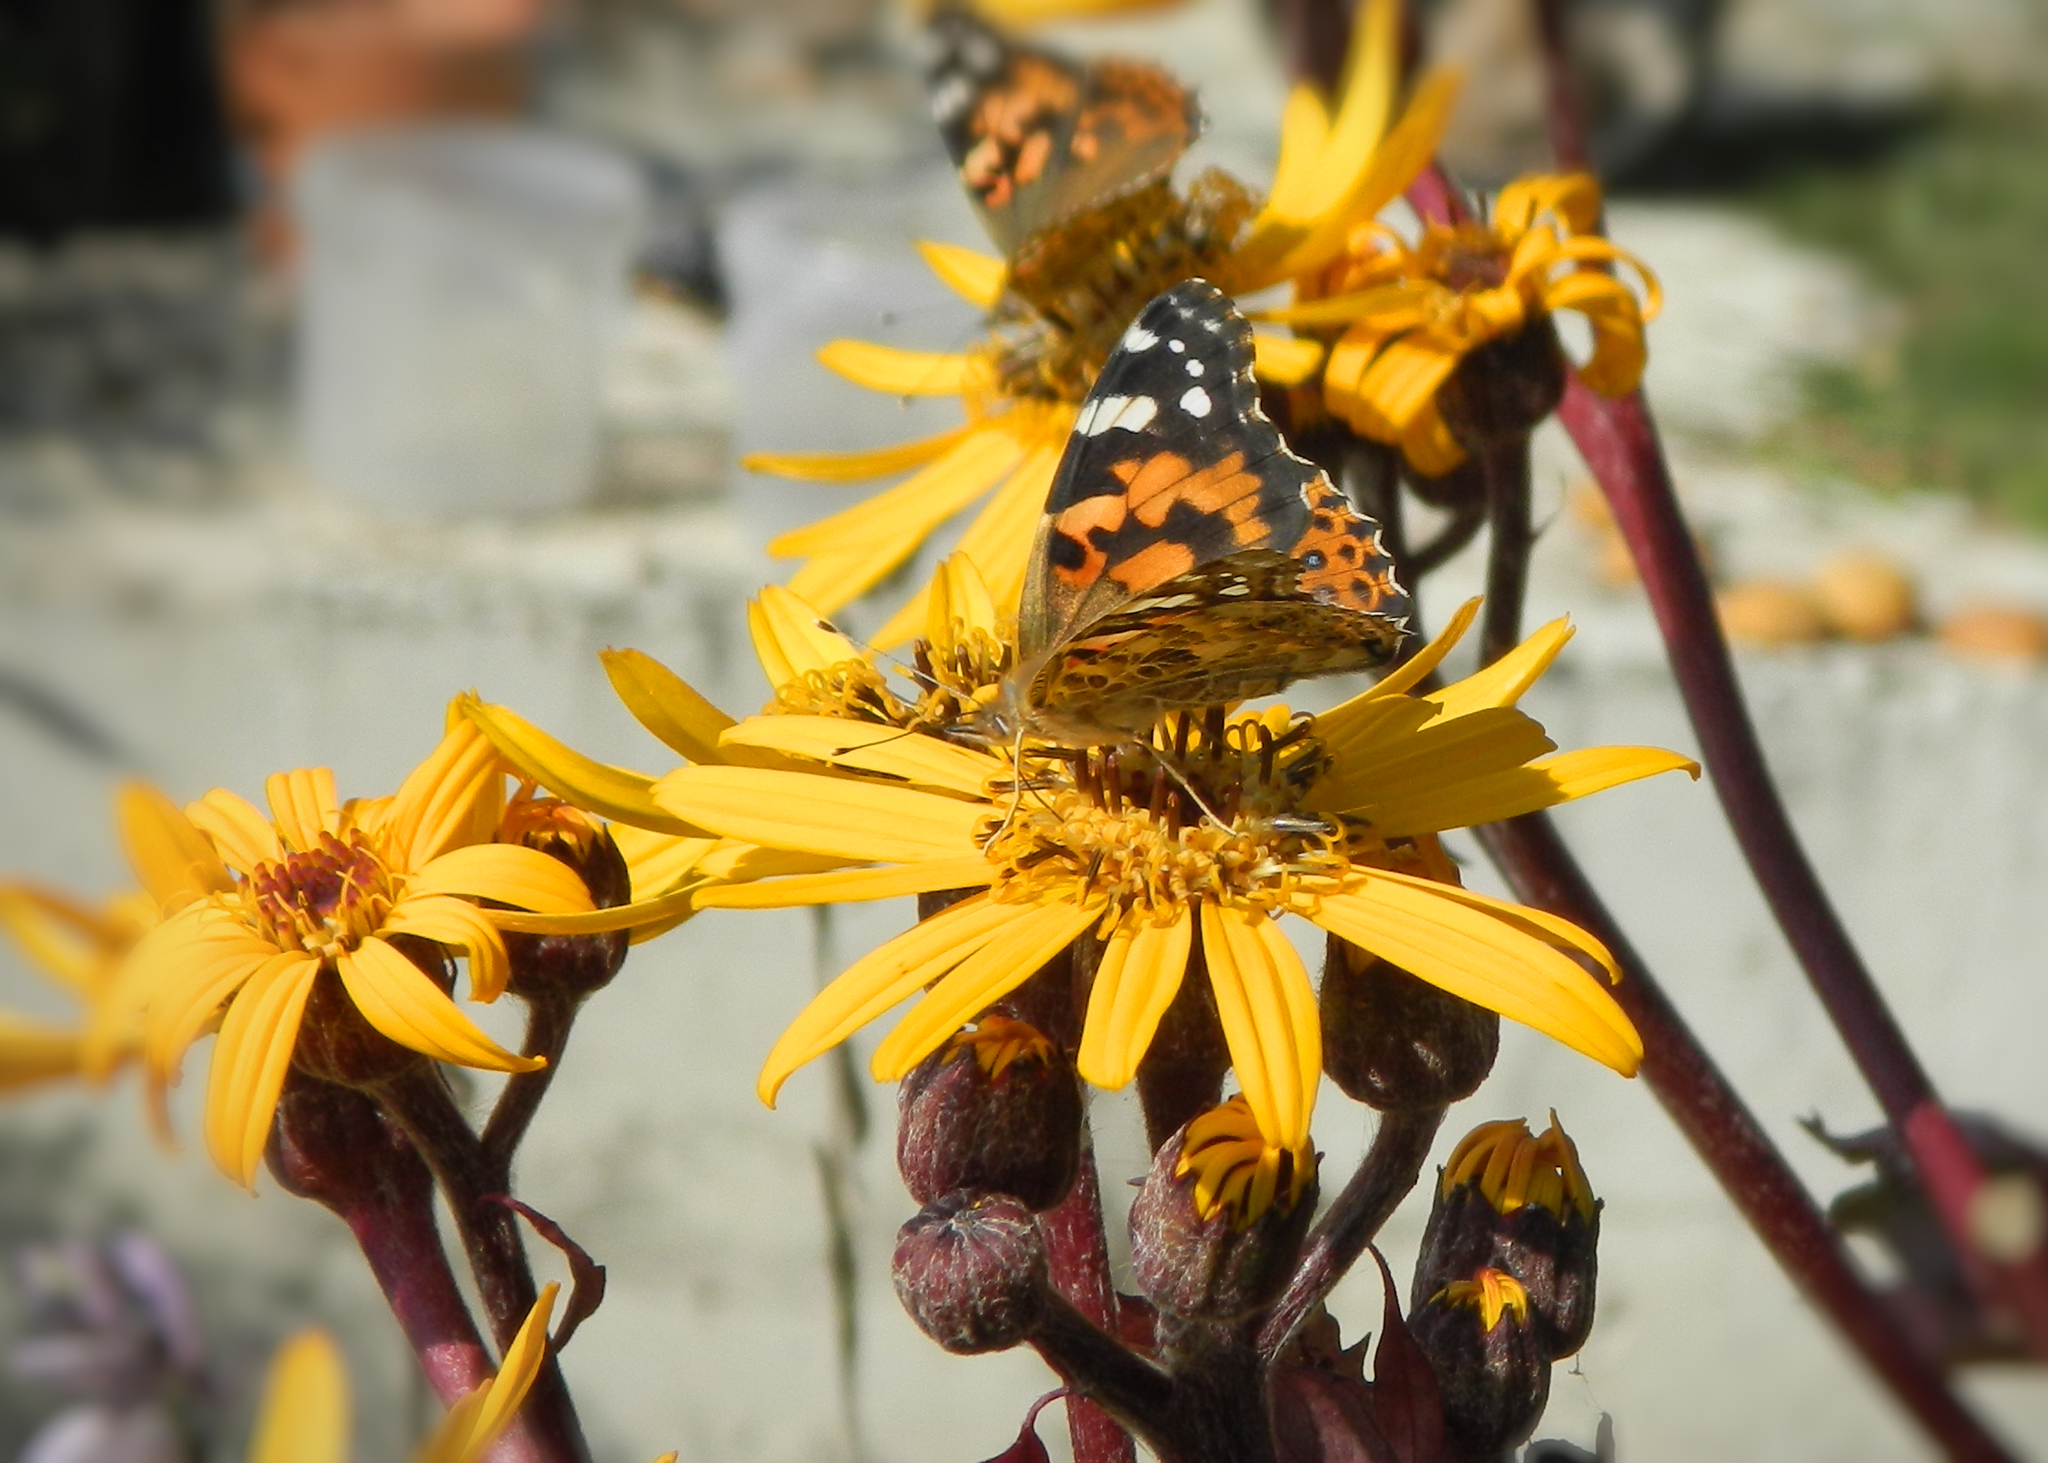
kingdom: Animalia
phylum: Arthropoda
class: Insecta
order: Lepidoptera
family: Nymphalidae
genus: Vanessa
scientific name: Vanessa cardui
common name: Painted lady
